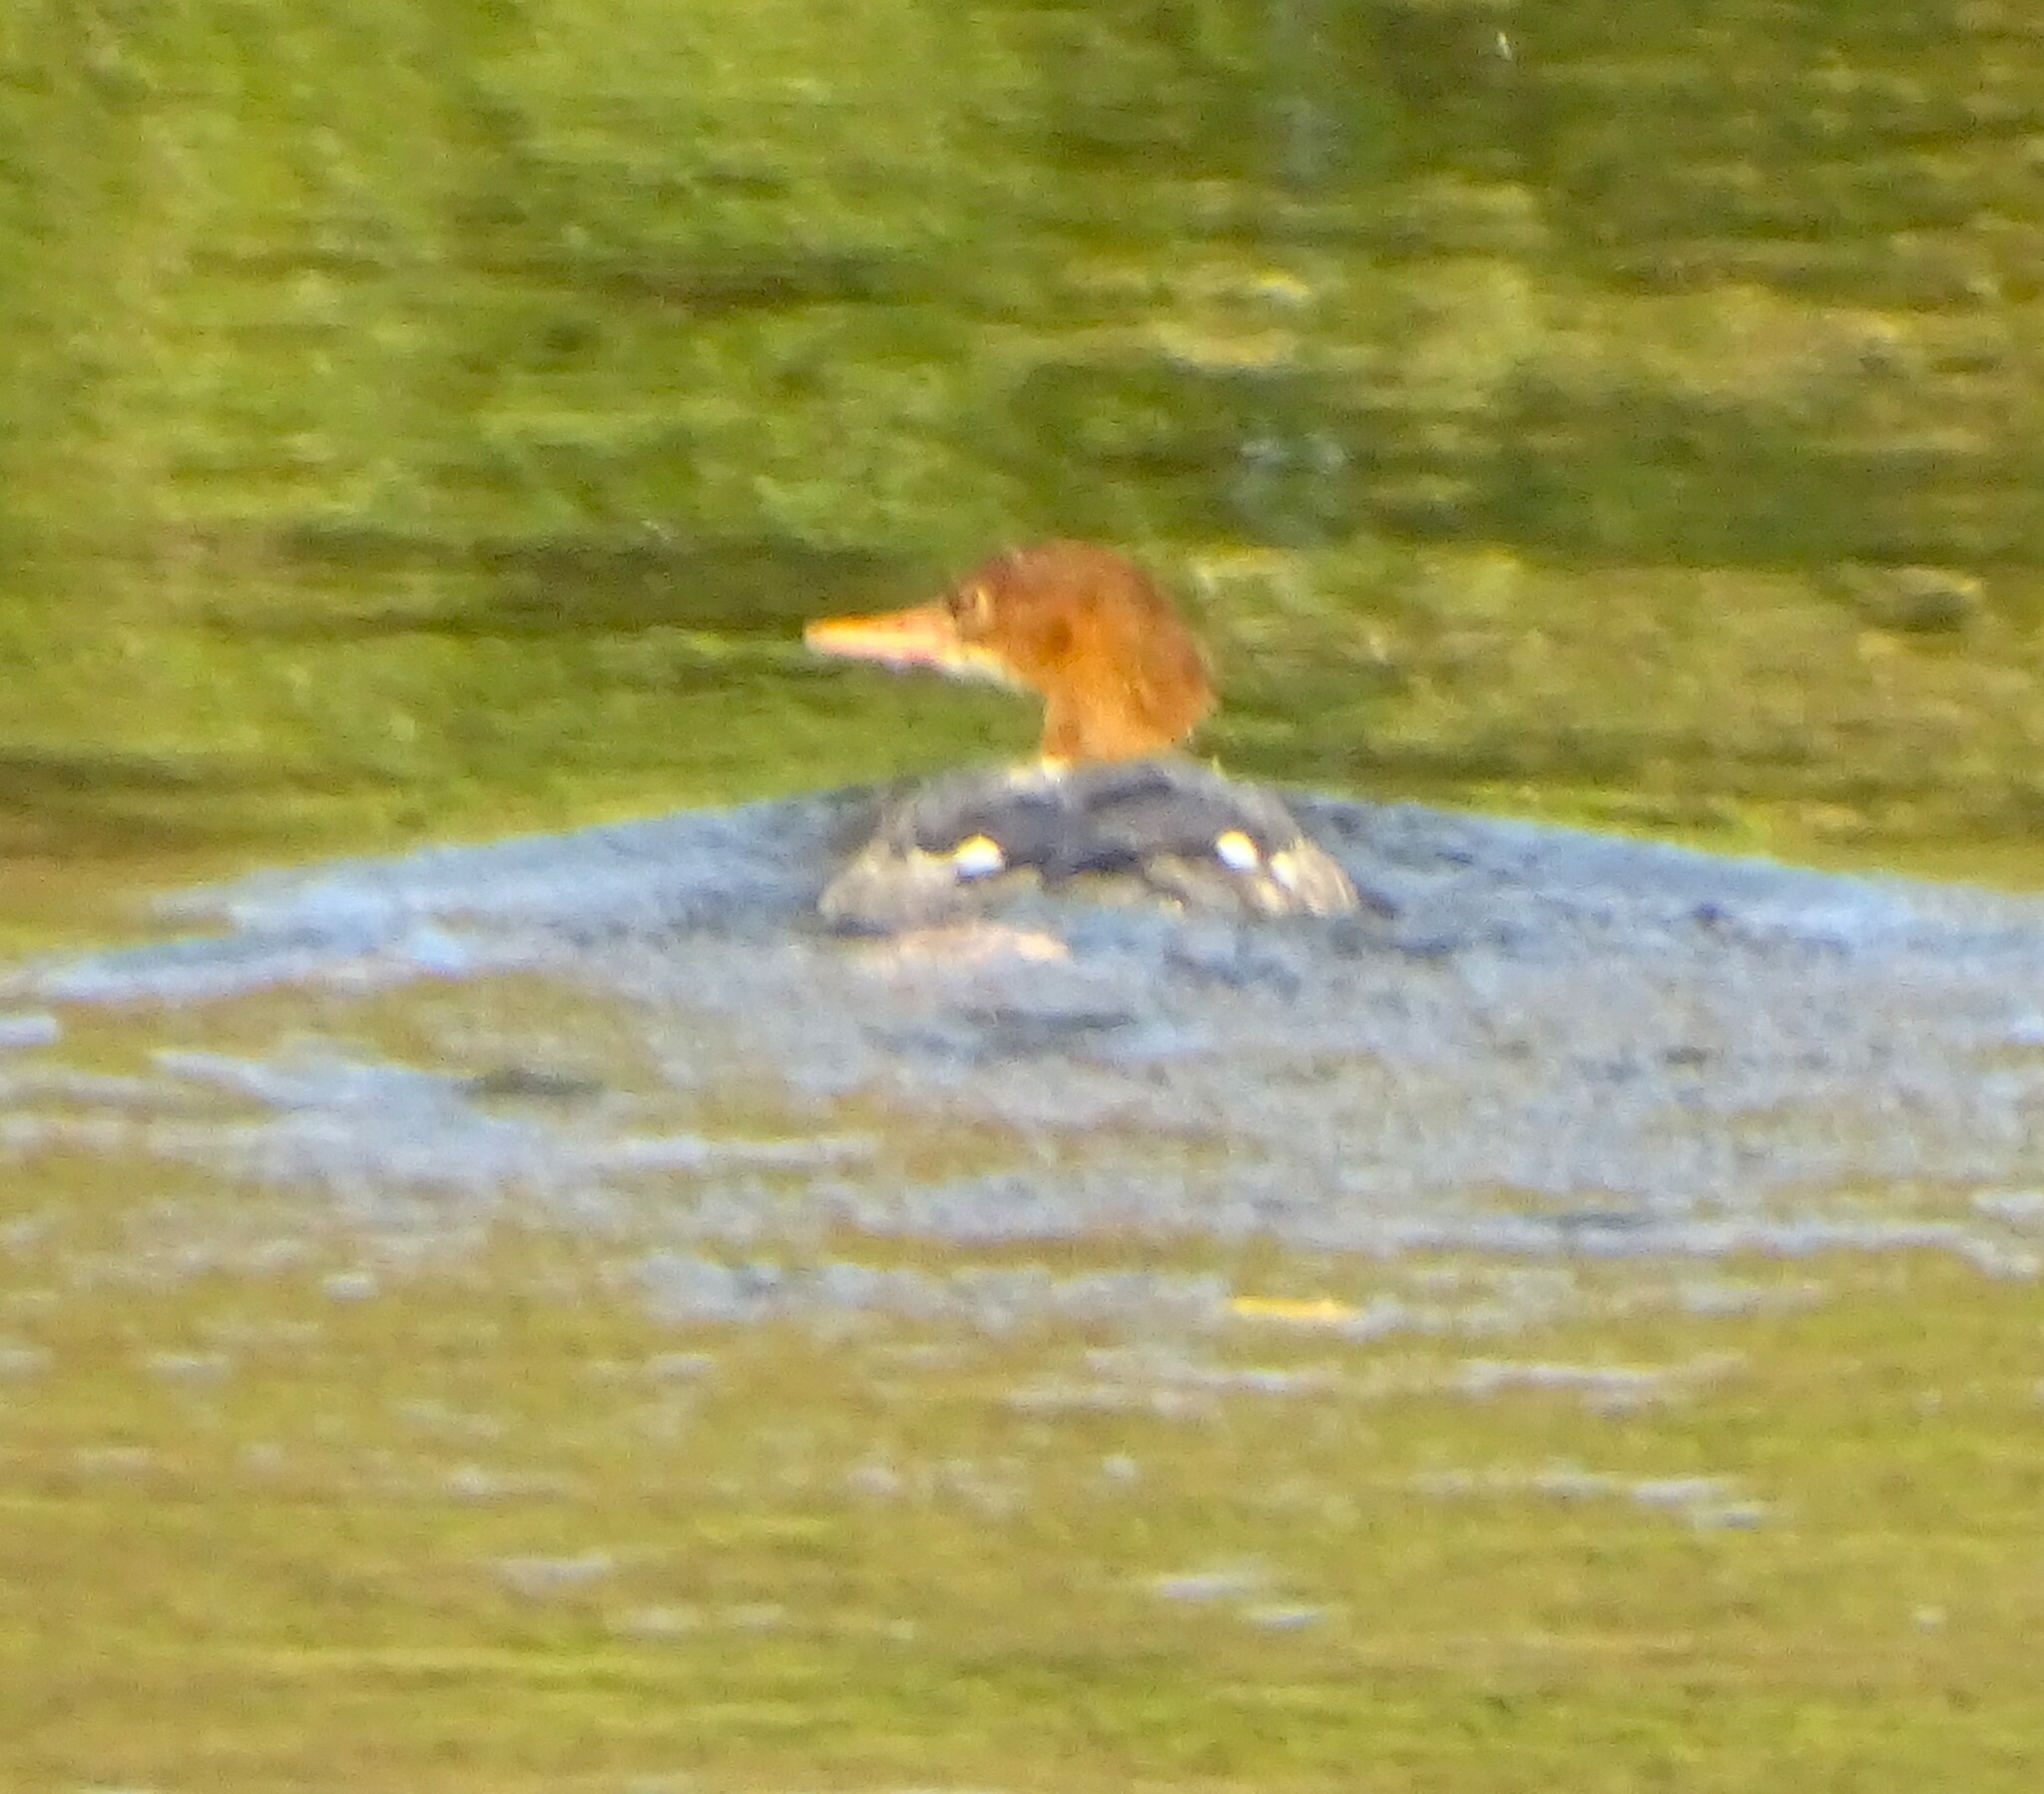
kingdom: Animalia
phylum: Chordata
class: Aves
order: Anseriformes
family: Anatidae
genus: Mergus
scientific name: Mergus merganser
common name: Common merganser
